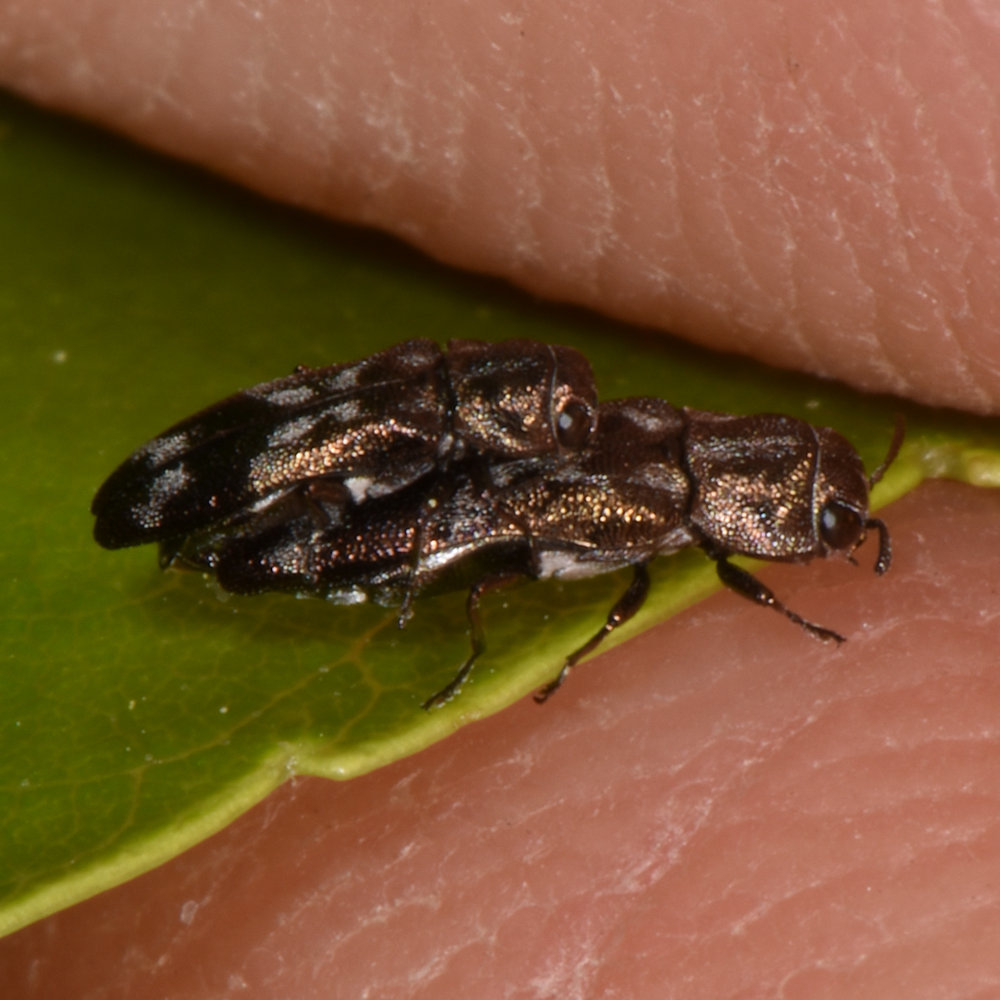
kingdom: Animalia
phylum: Arthropoda
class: Insecta
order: Coleoptera
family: Buprestidae
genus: Agrilus
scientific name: Agrilus subcinctus
